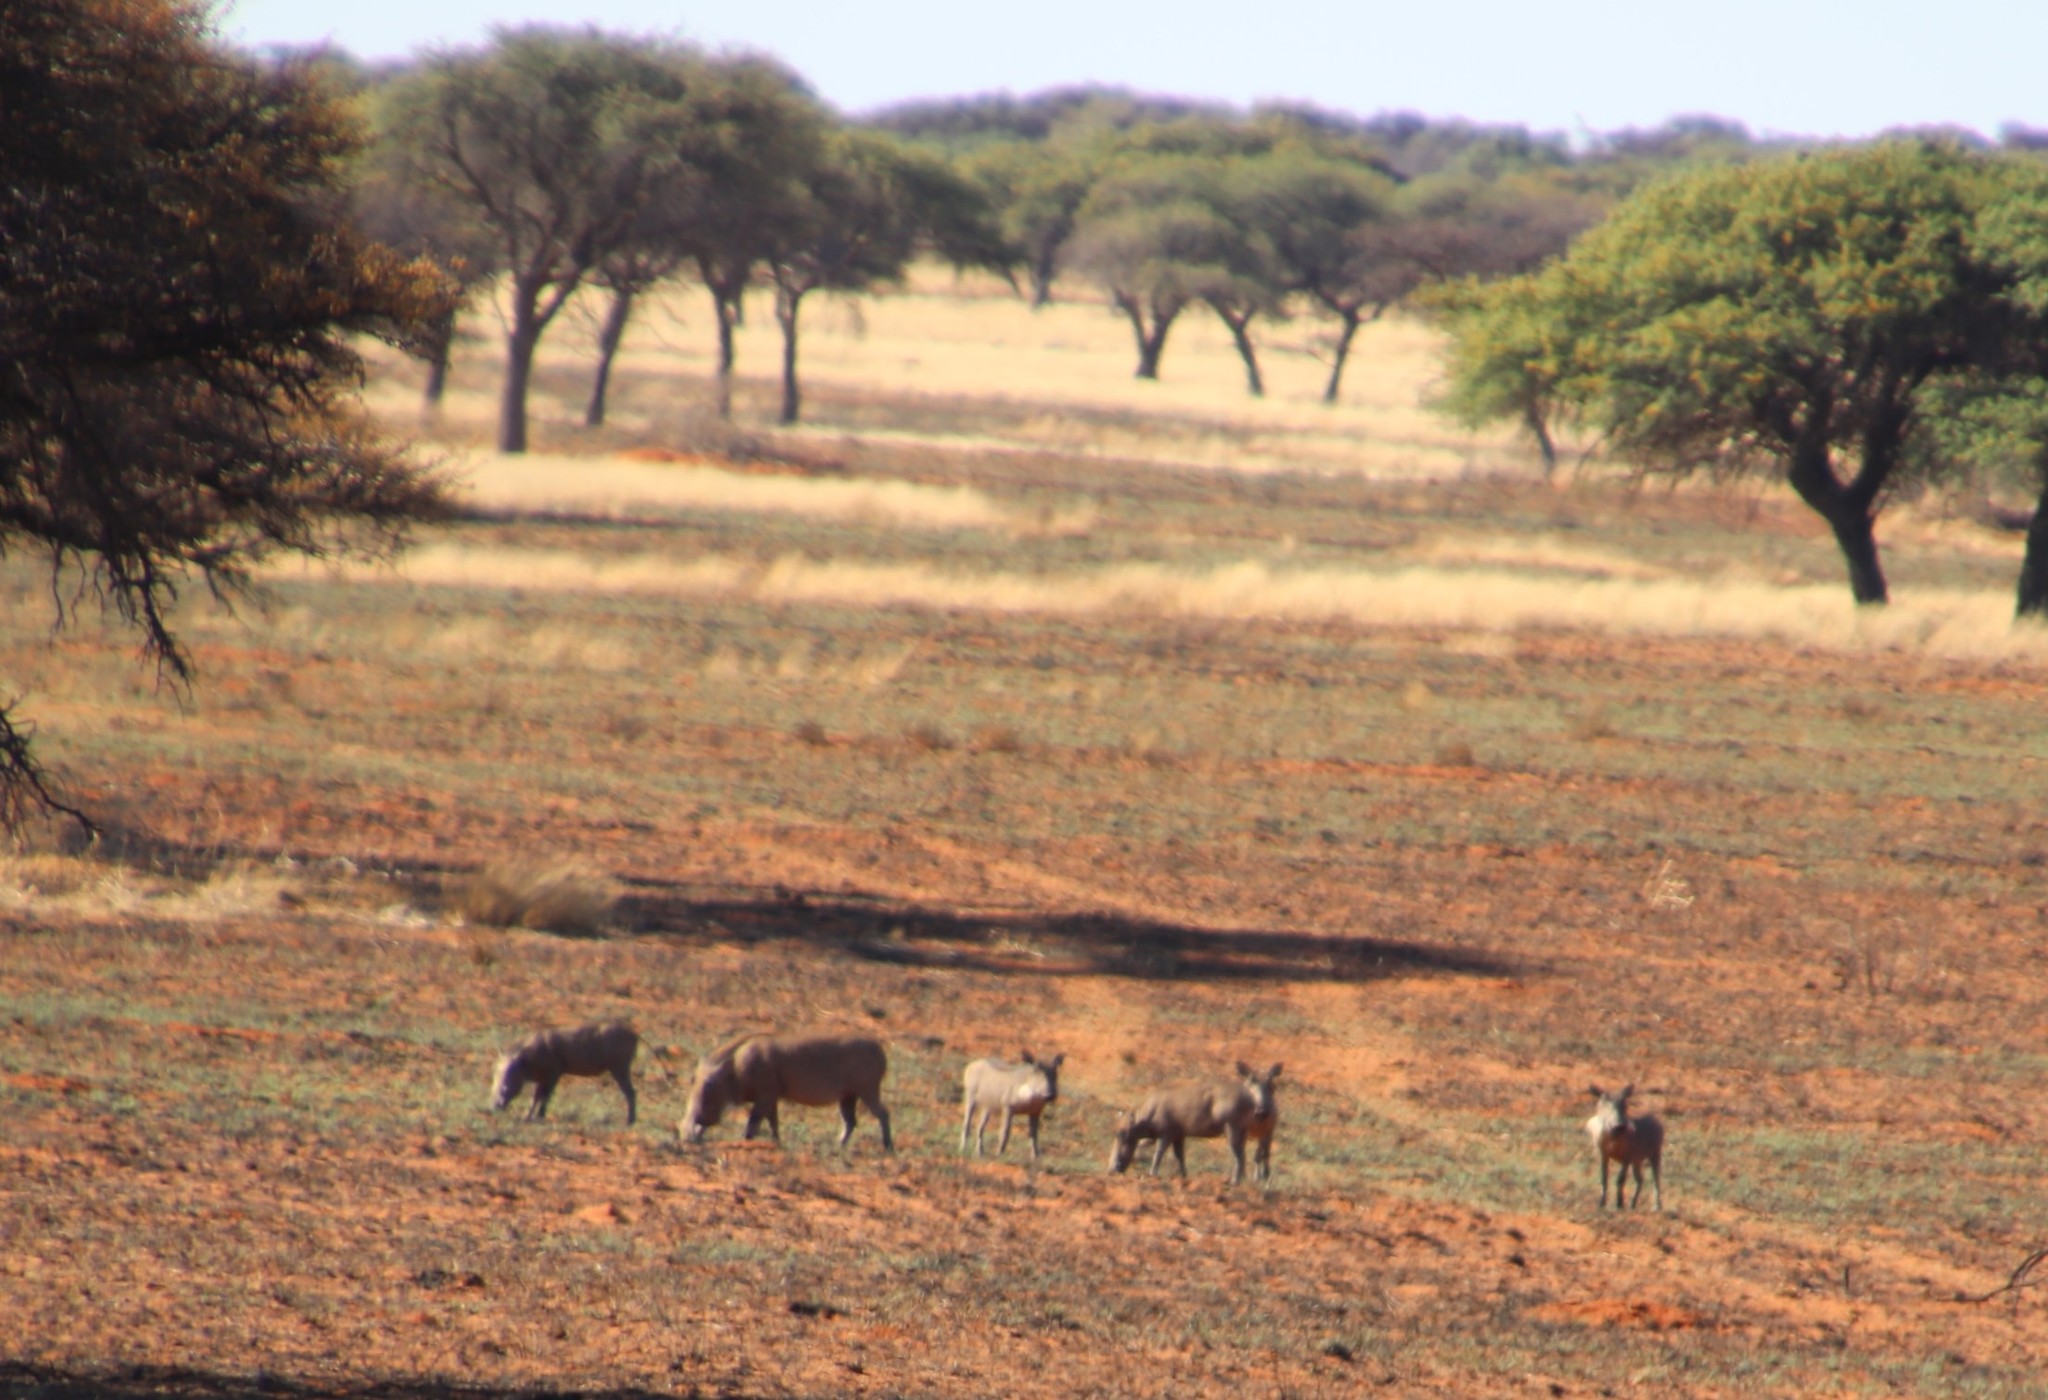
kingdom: Animalia
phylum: Chordata
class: Mammalia
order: Artiodactyla
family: Suidae
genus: Phacochoerus
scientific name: Phacochoerus africanus
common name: Common warthog
